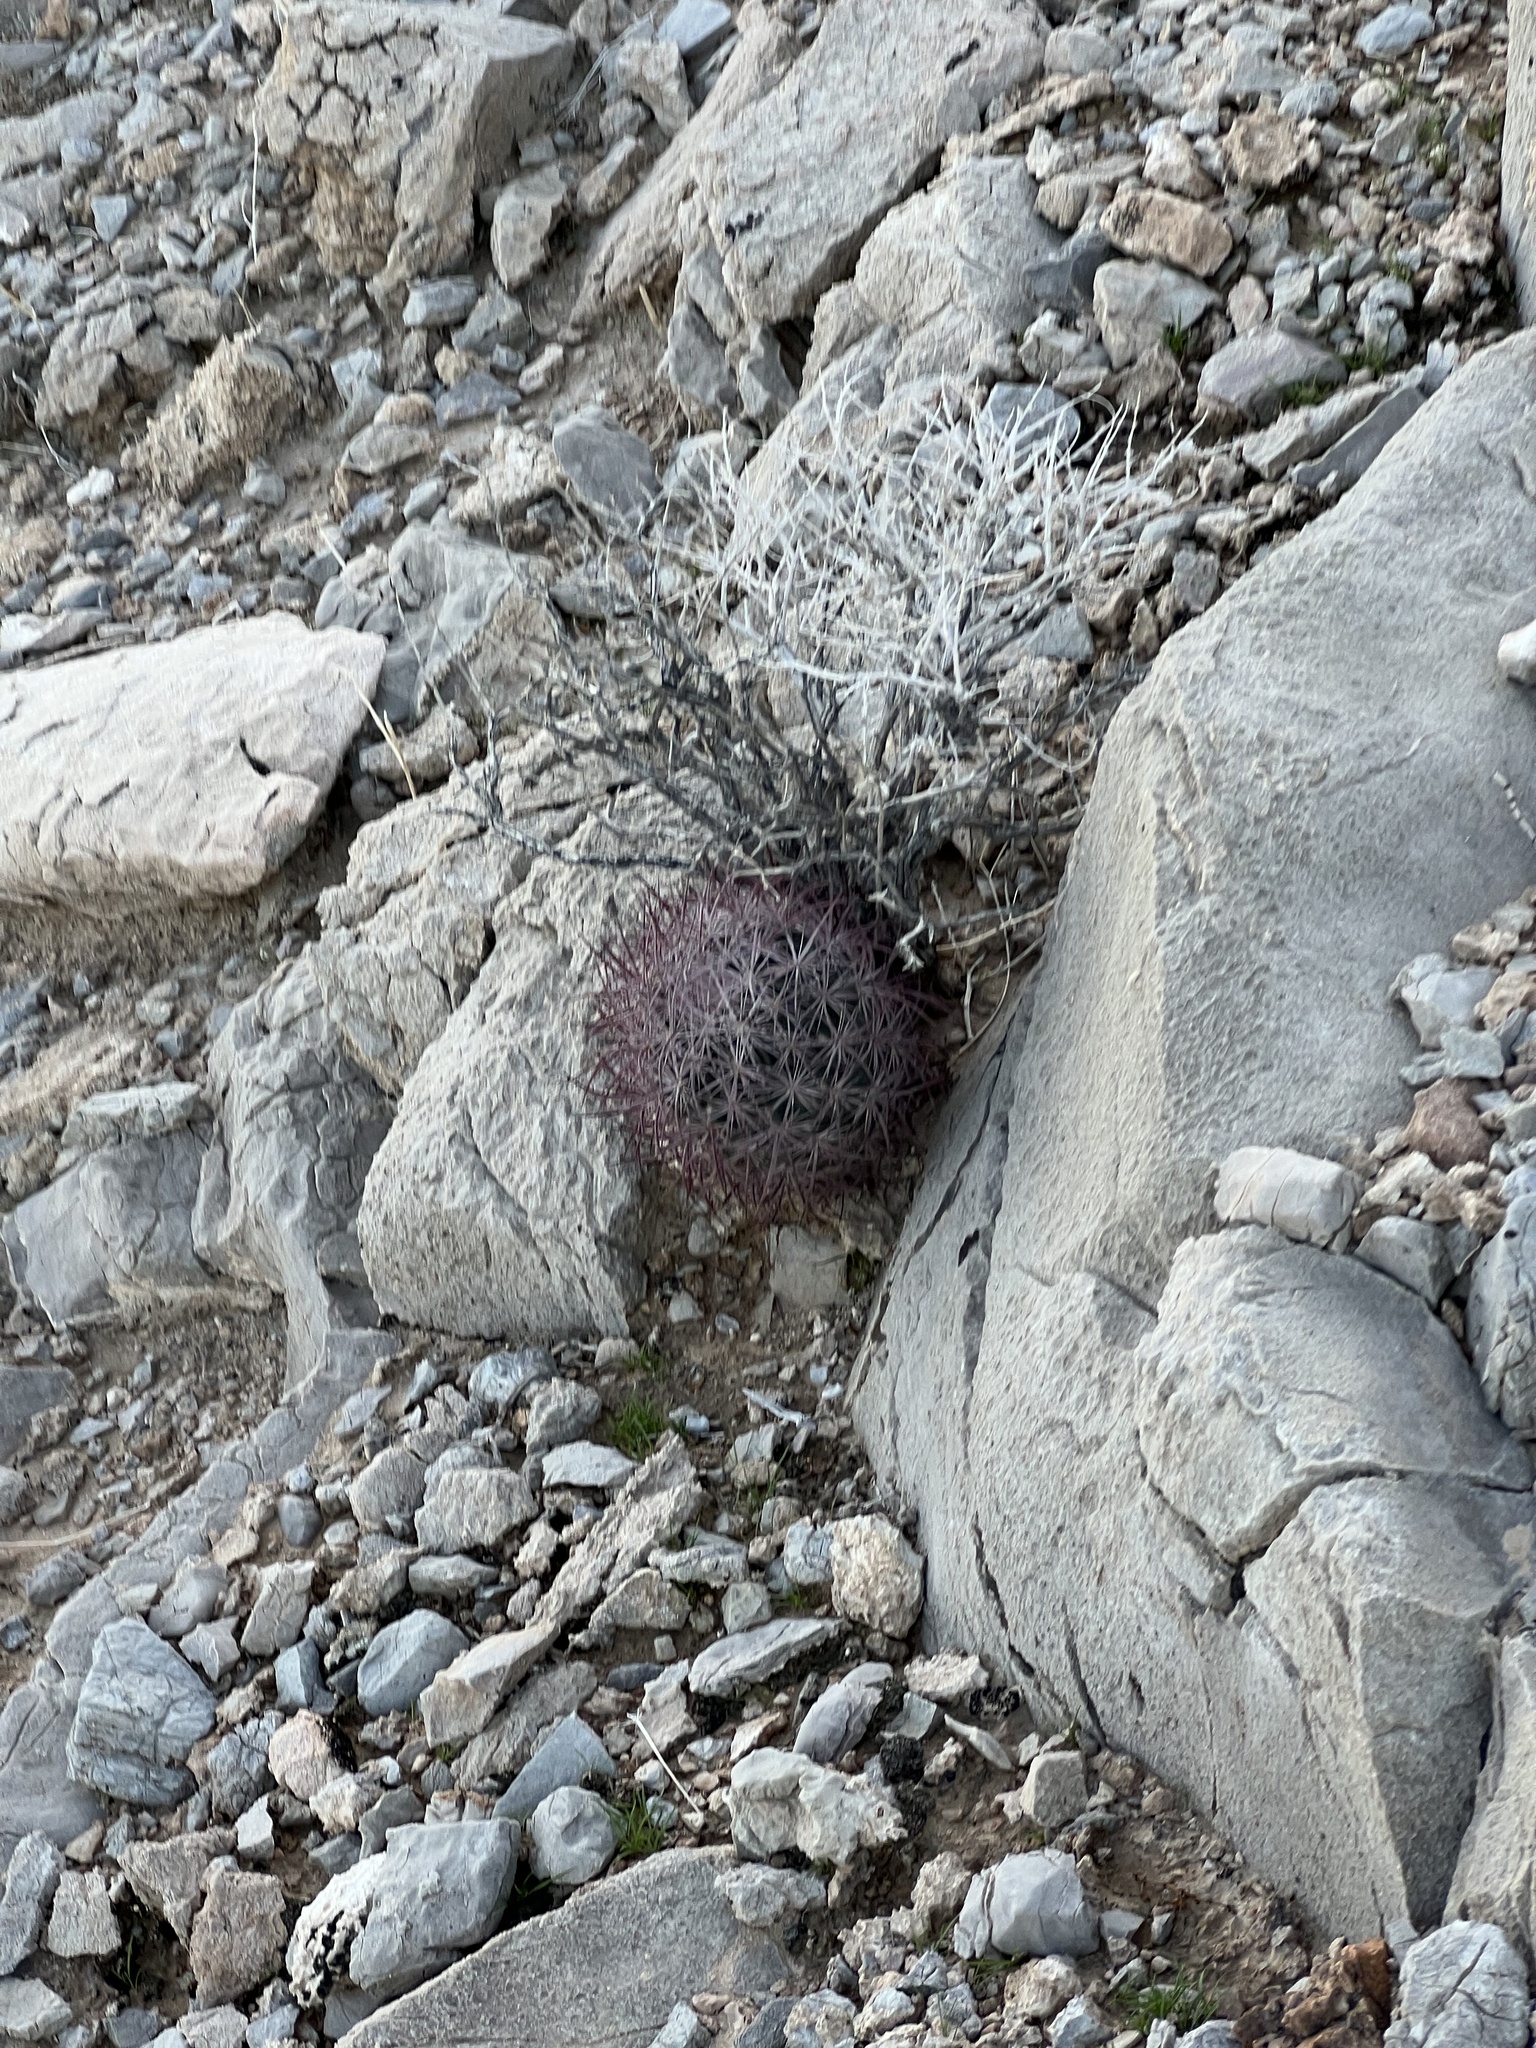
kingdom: Plantae
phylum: Tracheophyta
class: Magnoliopsida
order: Caryophyllales
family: Cactaceae
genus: Sclerocactus
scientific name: Sclerocactus johnsonii
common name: Eight-spine fishhook cactus
